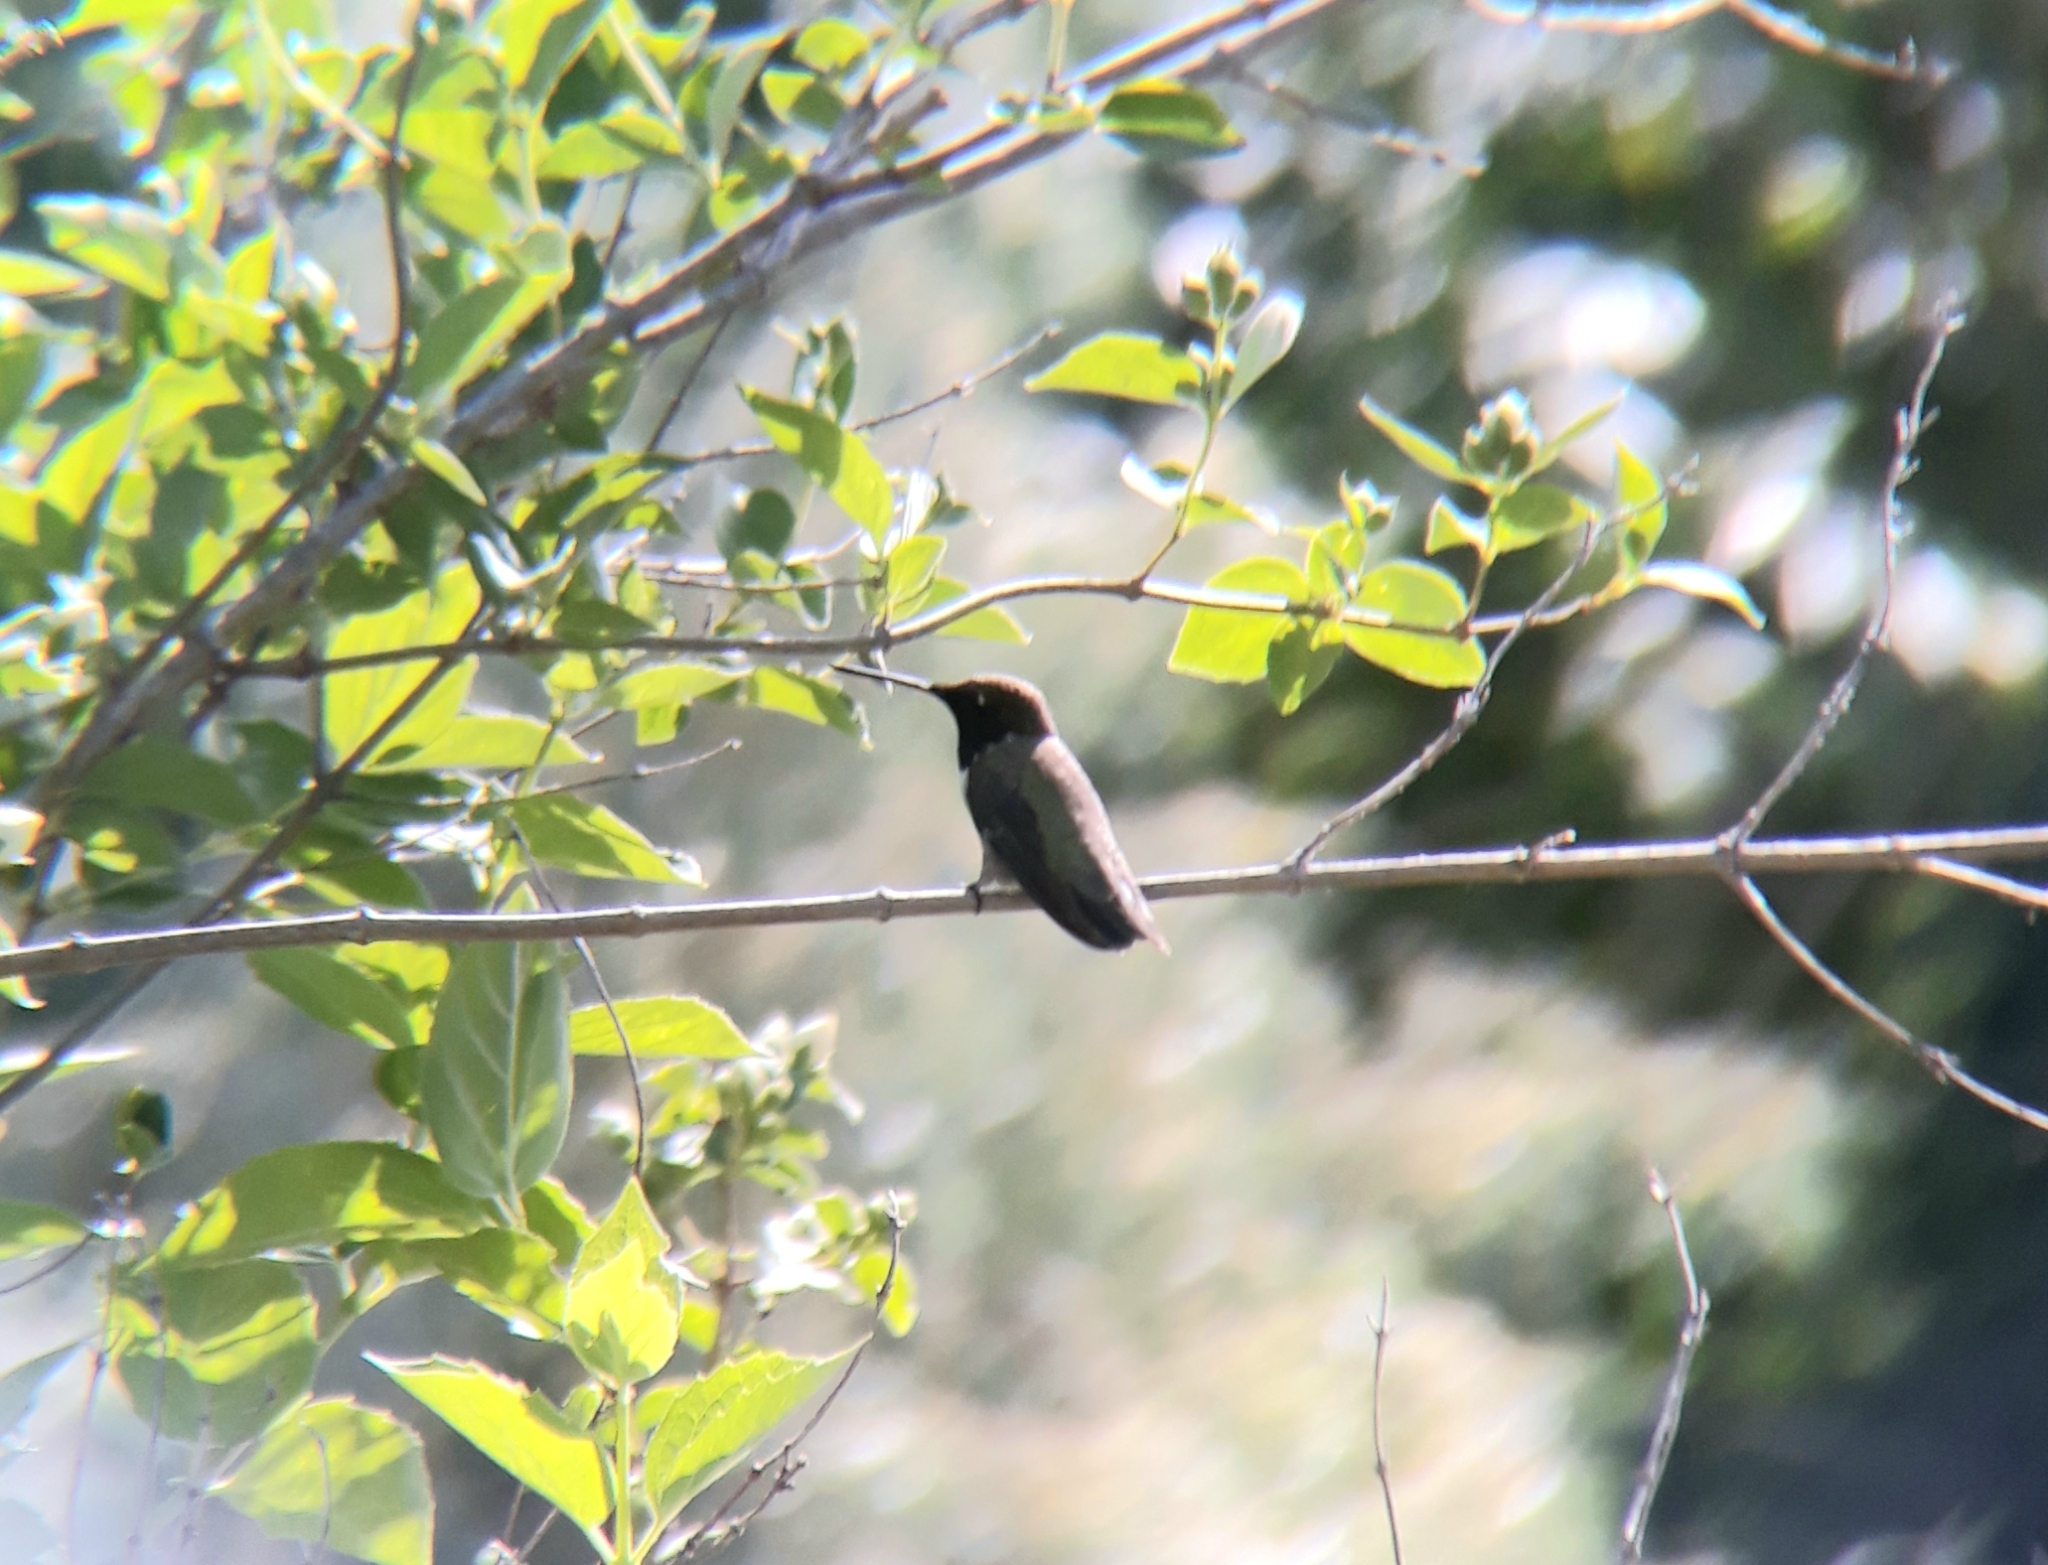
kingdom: Animalia
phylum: Chordata
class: Aves
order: Apodiformes
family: Trochilidae
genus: Archilochus
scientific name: Archilochus alexandri
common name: Black-chinned hummingbird
